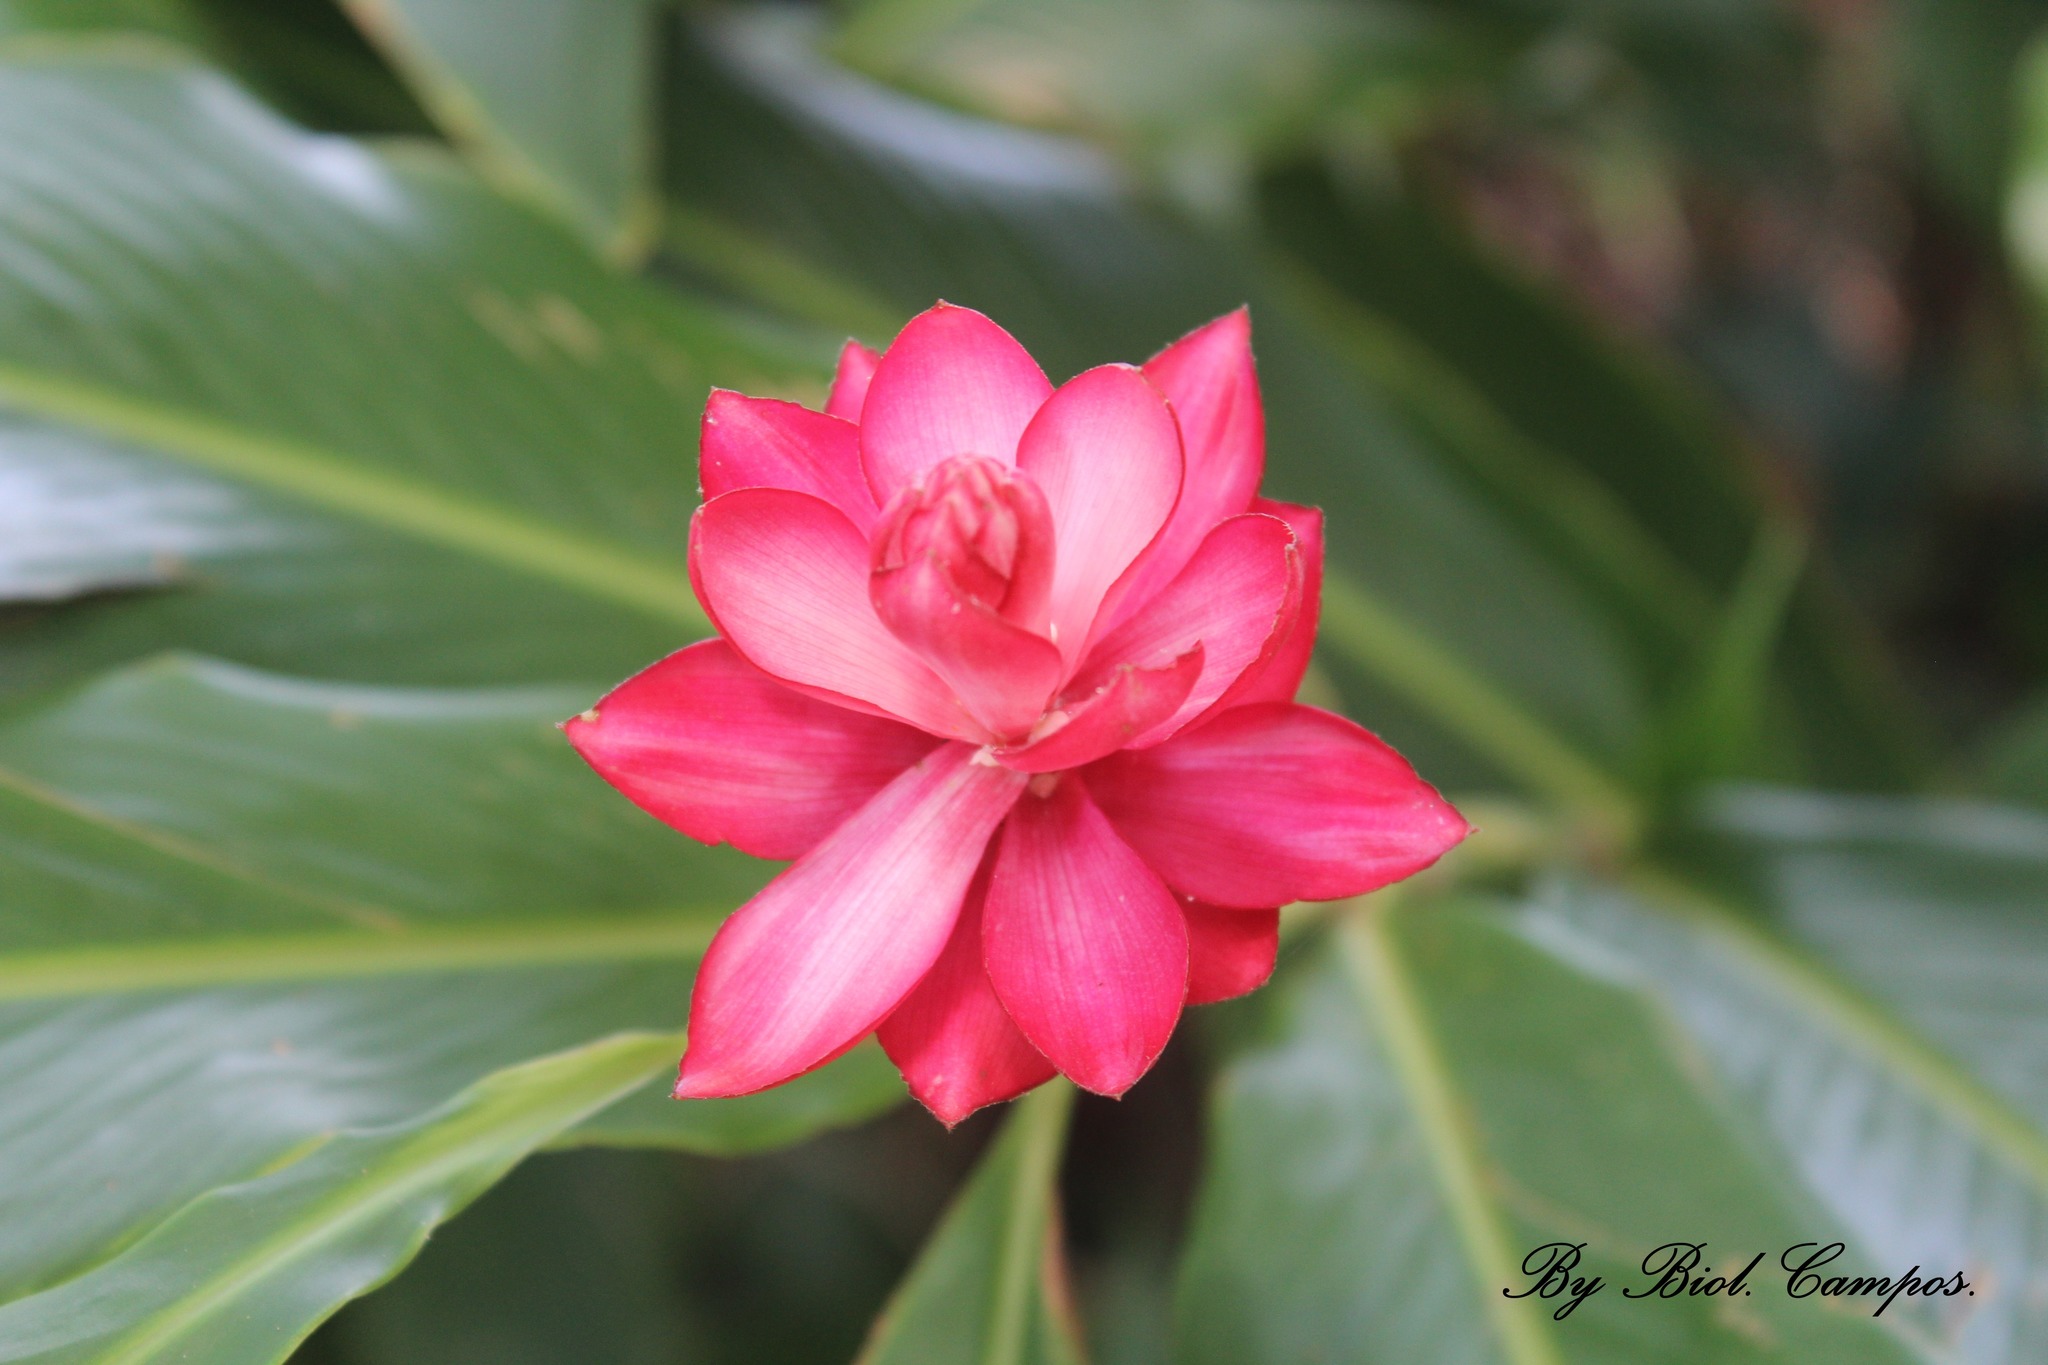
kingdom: Plantae
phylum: Tracheophyta
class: Liliopsida
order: Zingiberales
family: Zingiberaceae
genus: Alpinia
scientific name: Alpinia purpurata
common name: Red ginger
